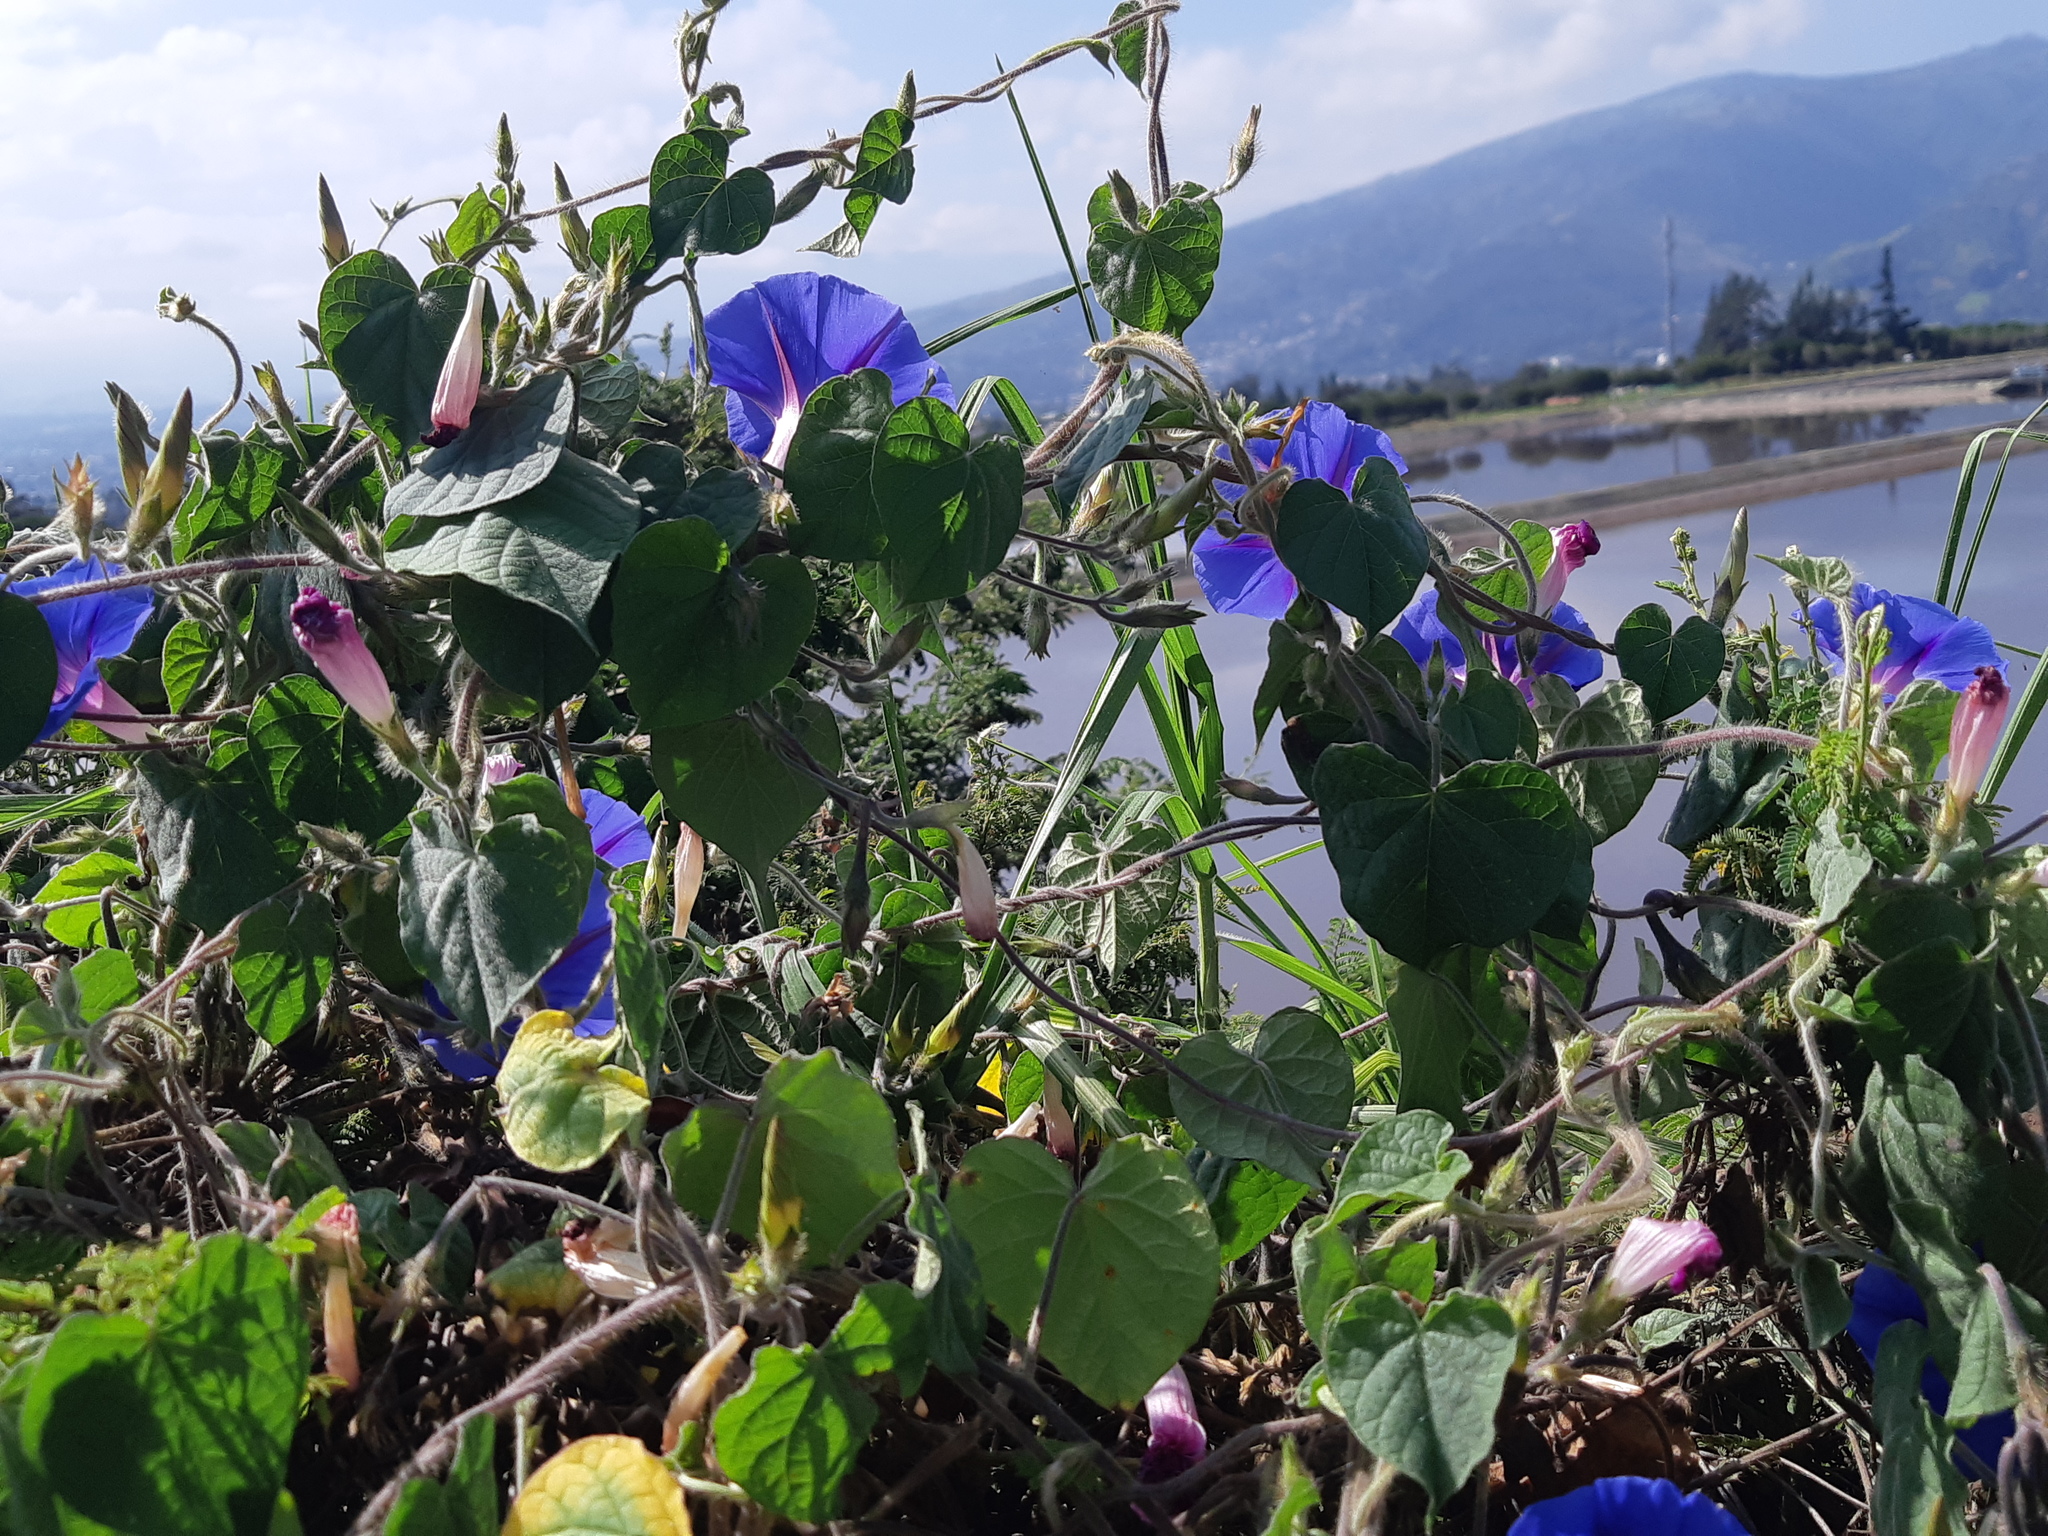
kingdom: Plantae
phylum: Tracheophyta
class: Magnoliopsida
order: Solanales
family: Convolvulaceae
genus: Ipomoea
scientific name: Ipomoea purpurea
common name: Common morning-glory
